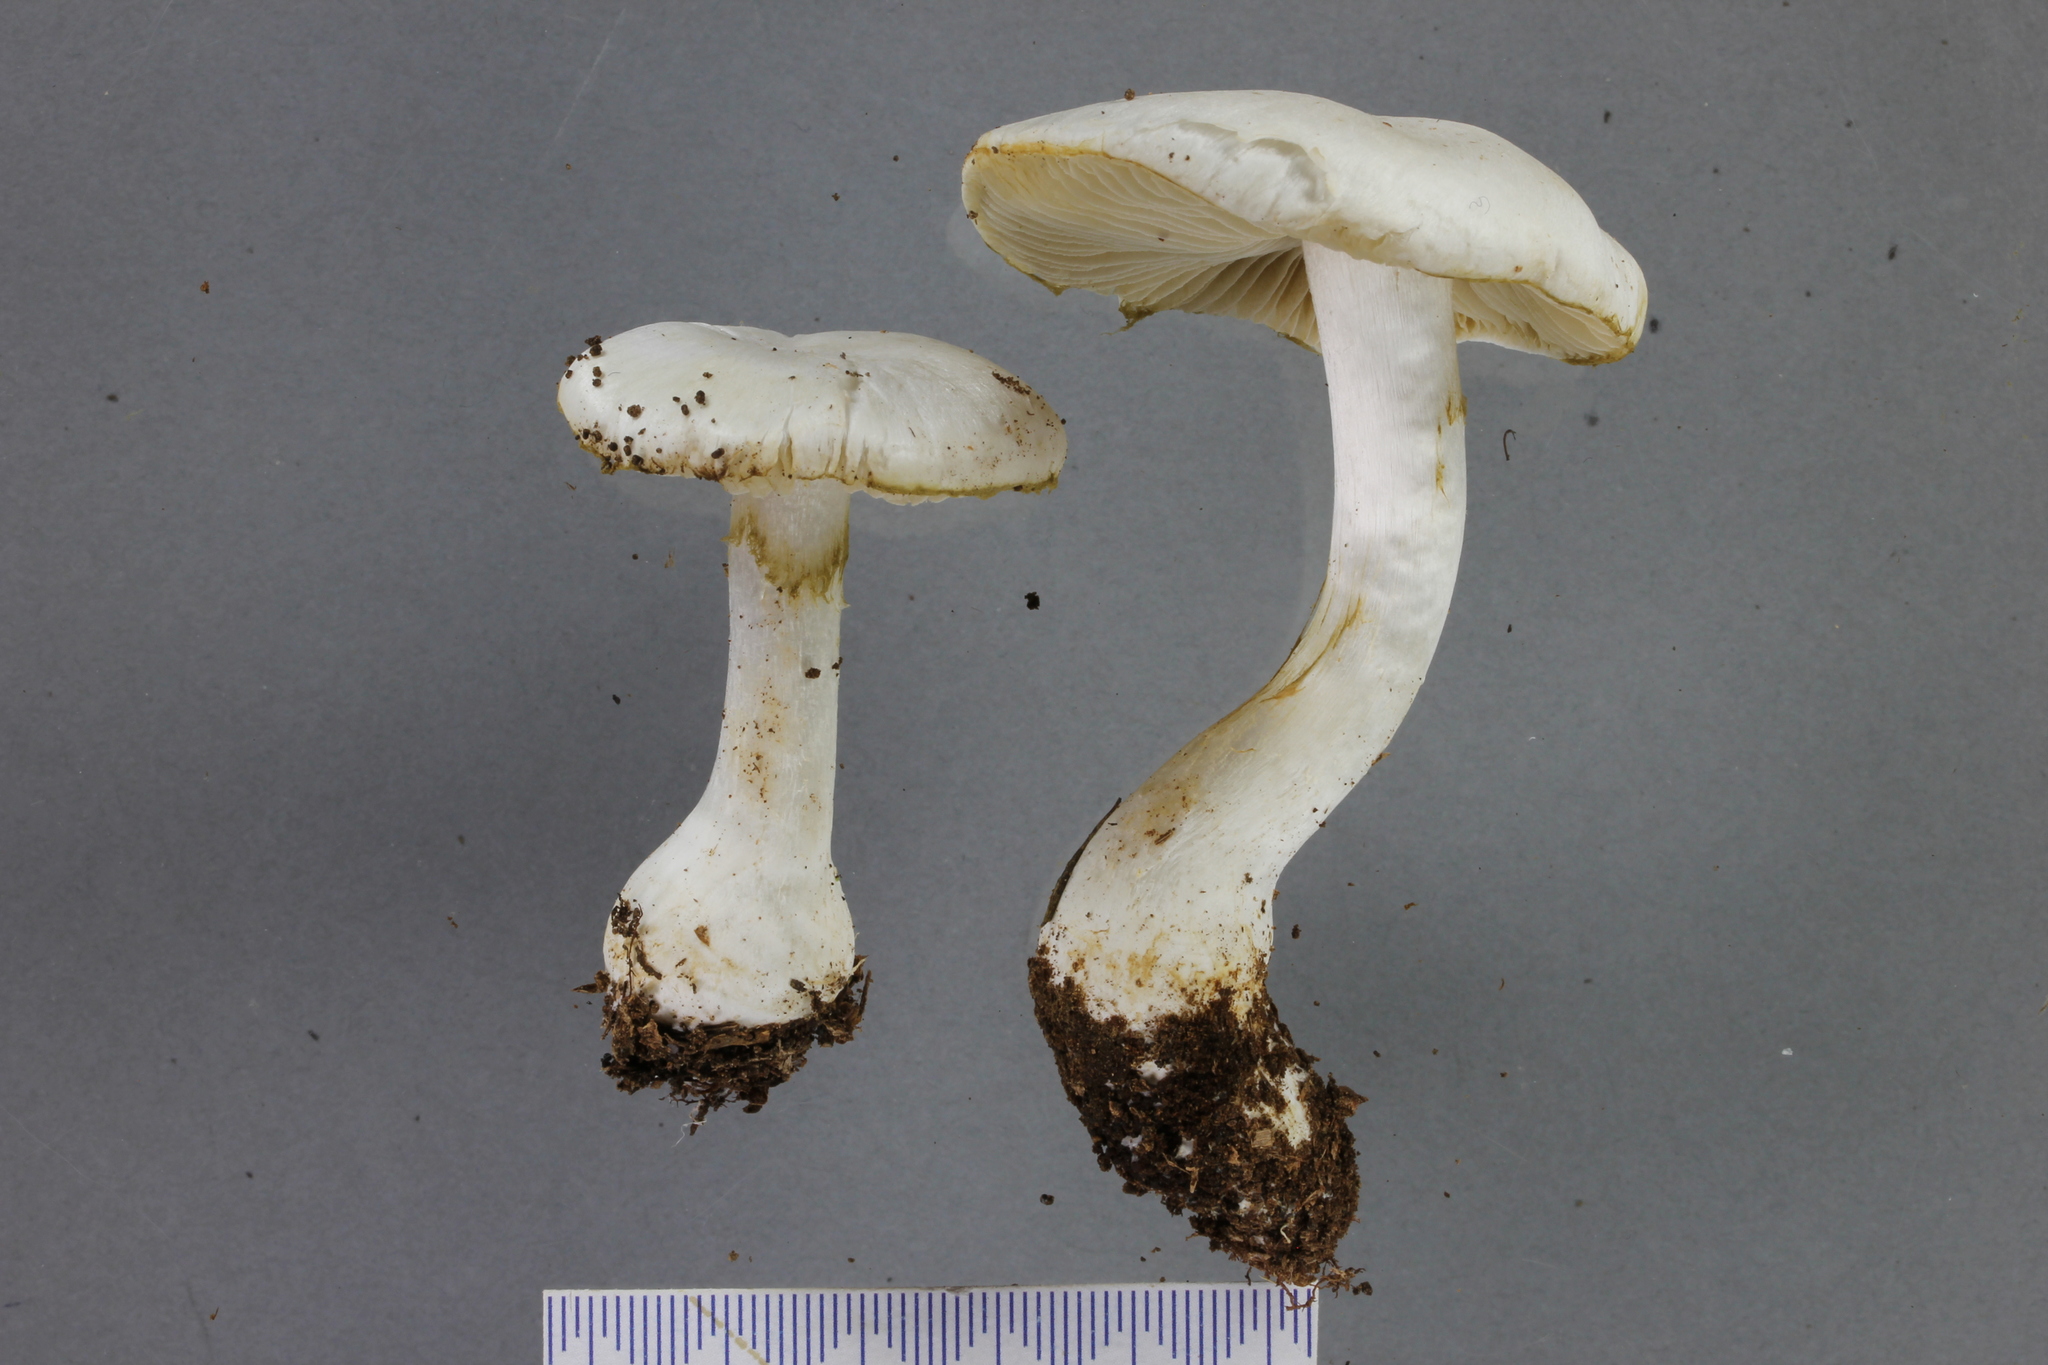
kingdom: Fungi
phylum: Basidiomycota
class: Agaricomycetes
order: Agaricales
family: Cortinariaceae
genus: Thaxterogaster
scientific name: Thaxterogaster mariae
